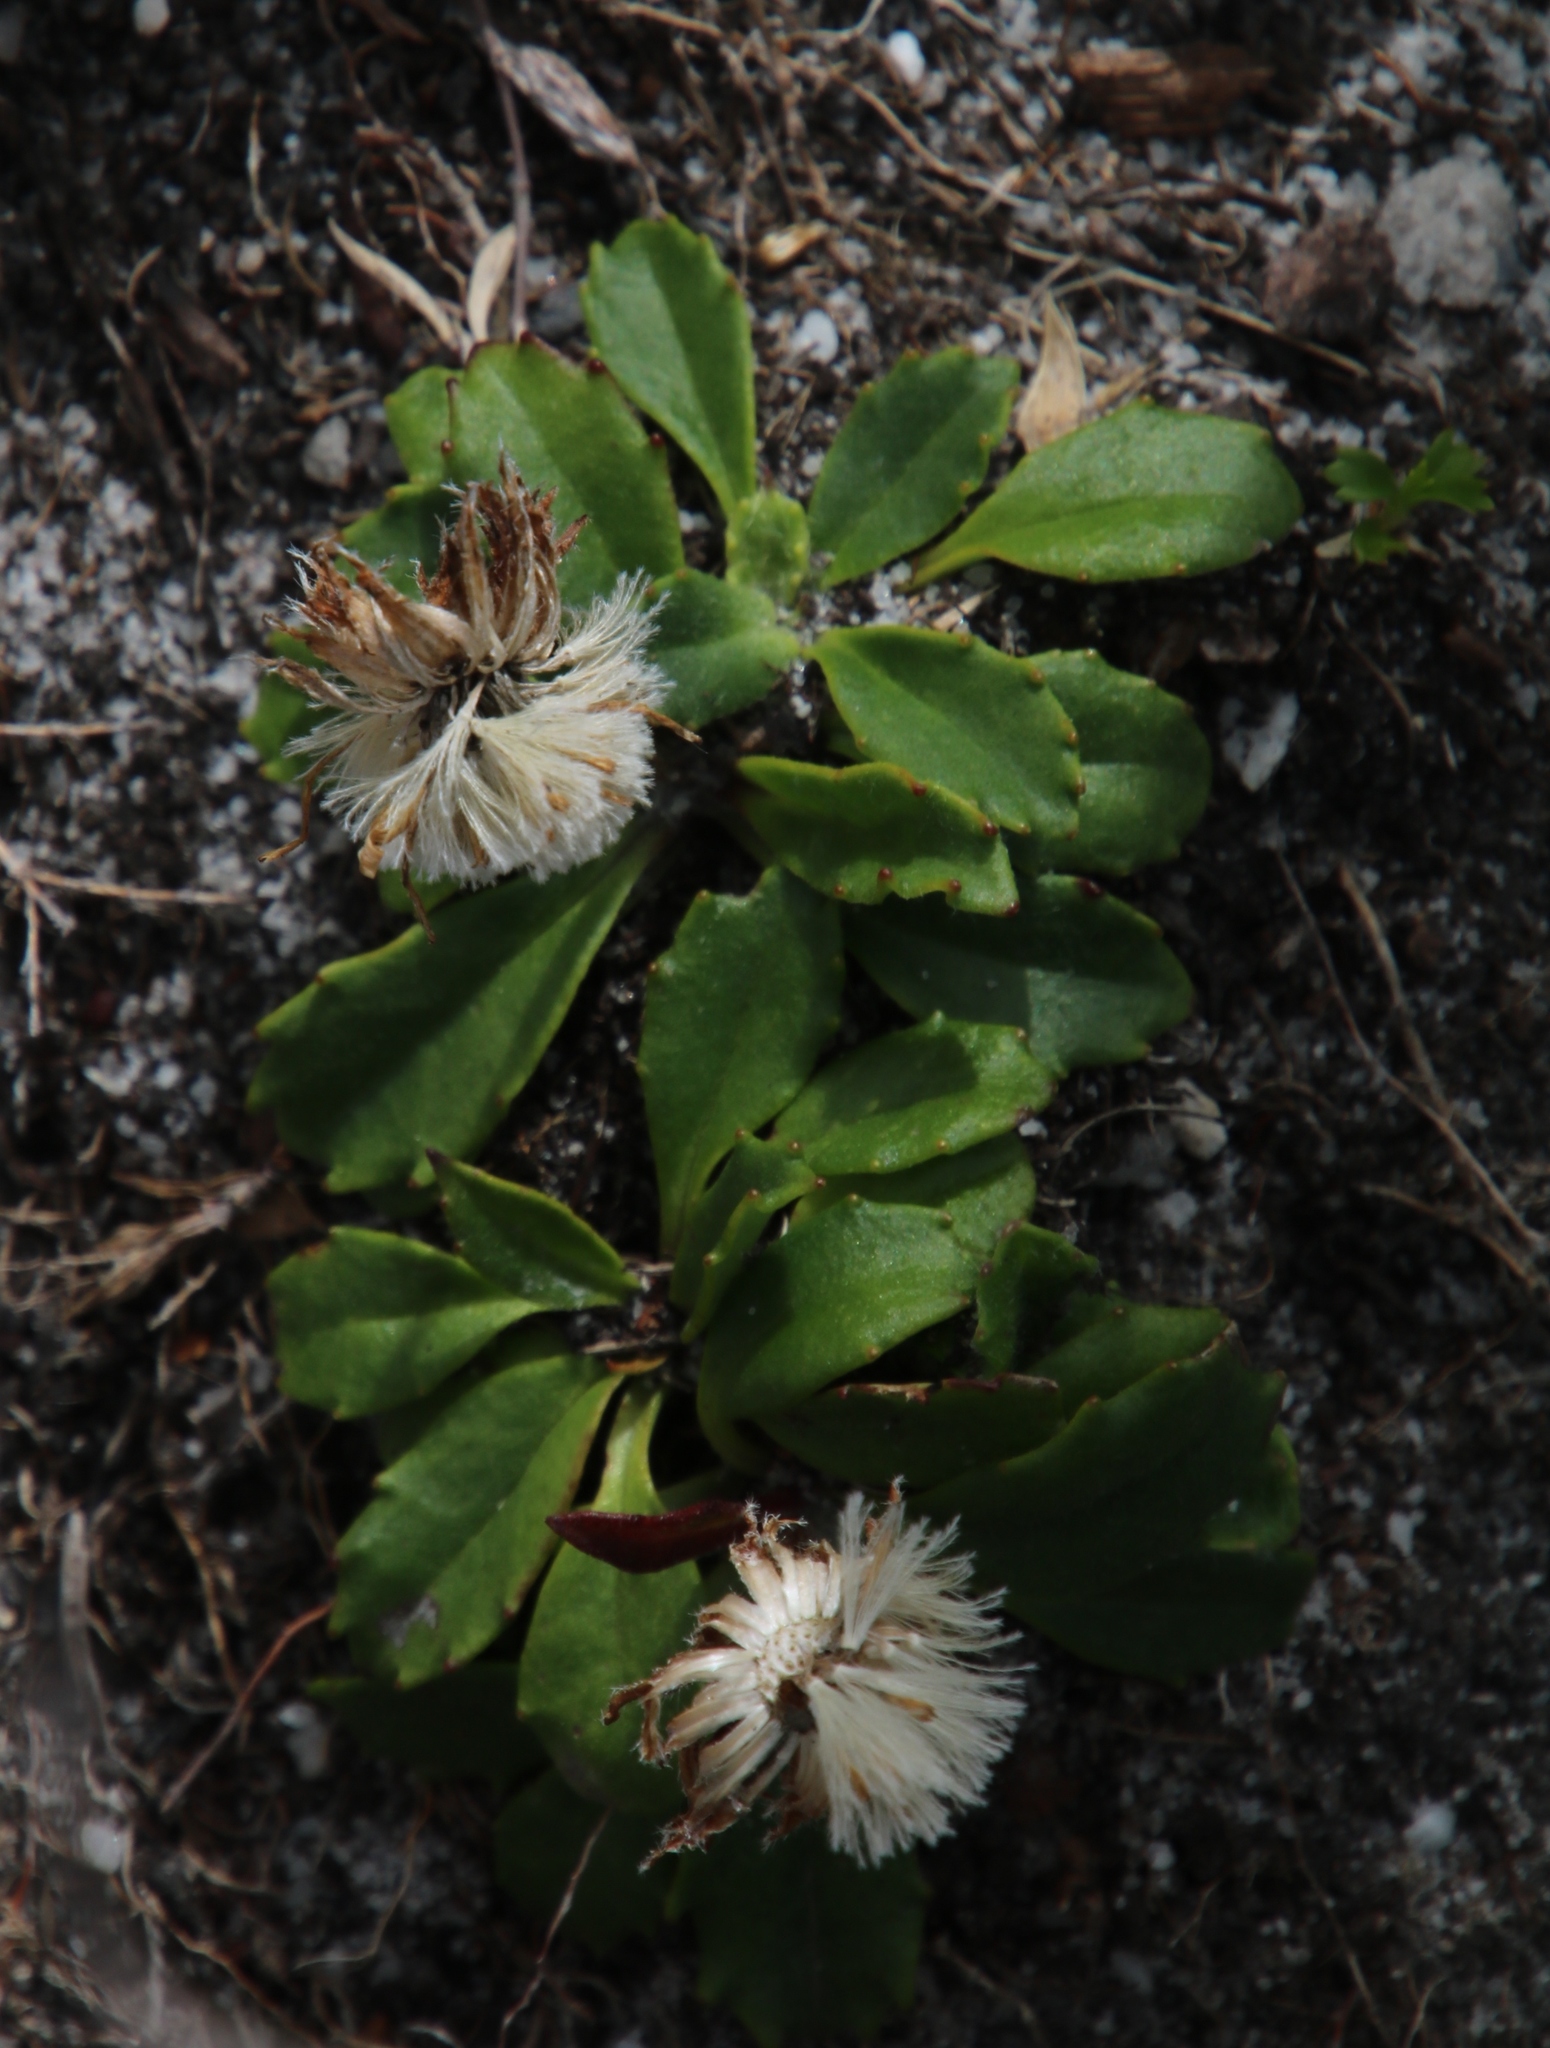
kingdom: Plantae
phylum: Tracheophyta
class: Magnoliopsida
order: Asterales
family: Asteraceae
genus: Zyrphelis
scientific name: Zyrphelis crenata
